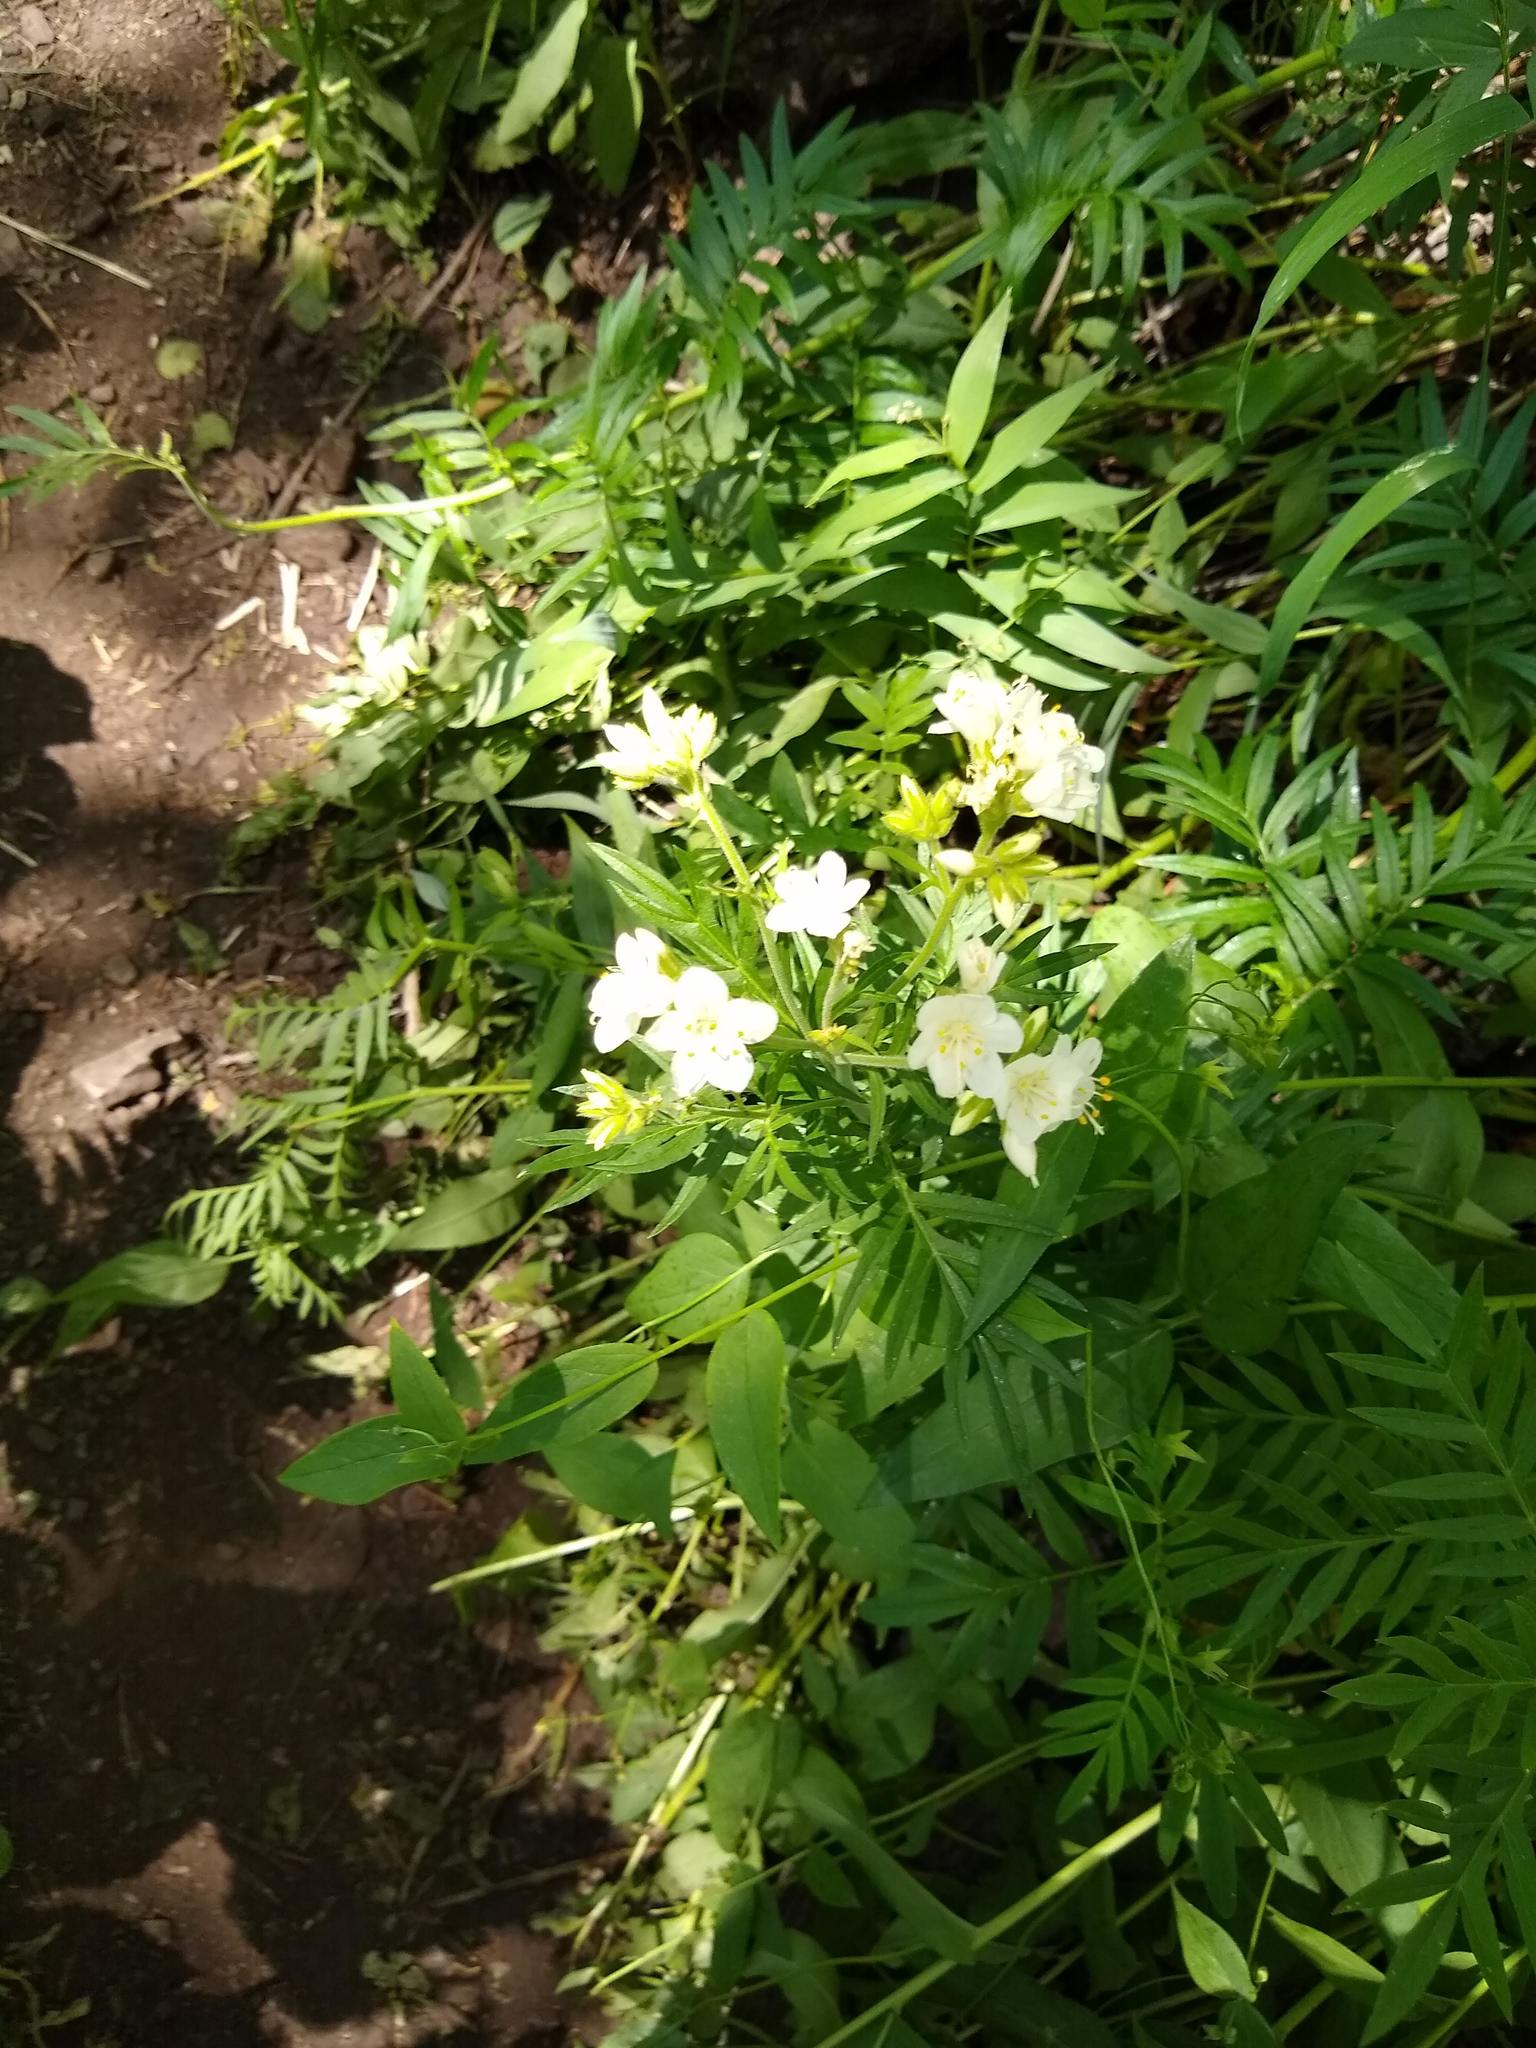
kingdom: Plantae
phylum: Tracheophyta
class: Magnoliopsida
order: Ericales
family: Polemoniaceae
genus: Polemonium
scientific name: Polemonium foliosissimum
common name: Leafy jacob's-ladder
